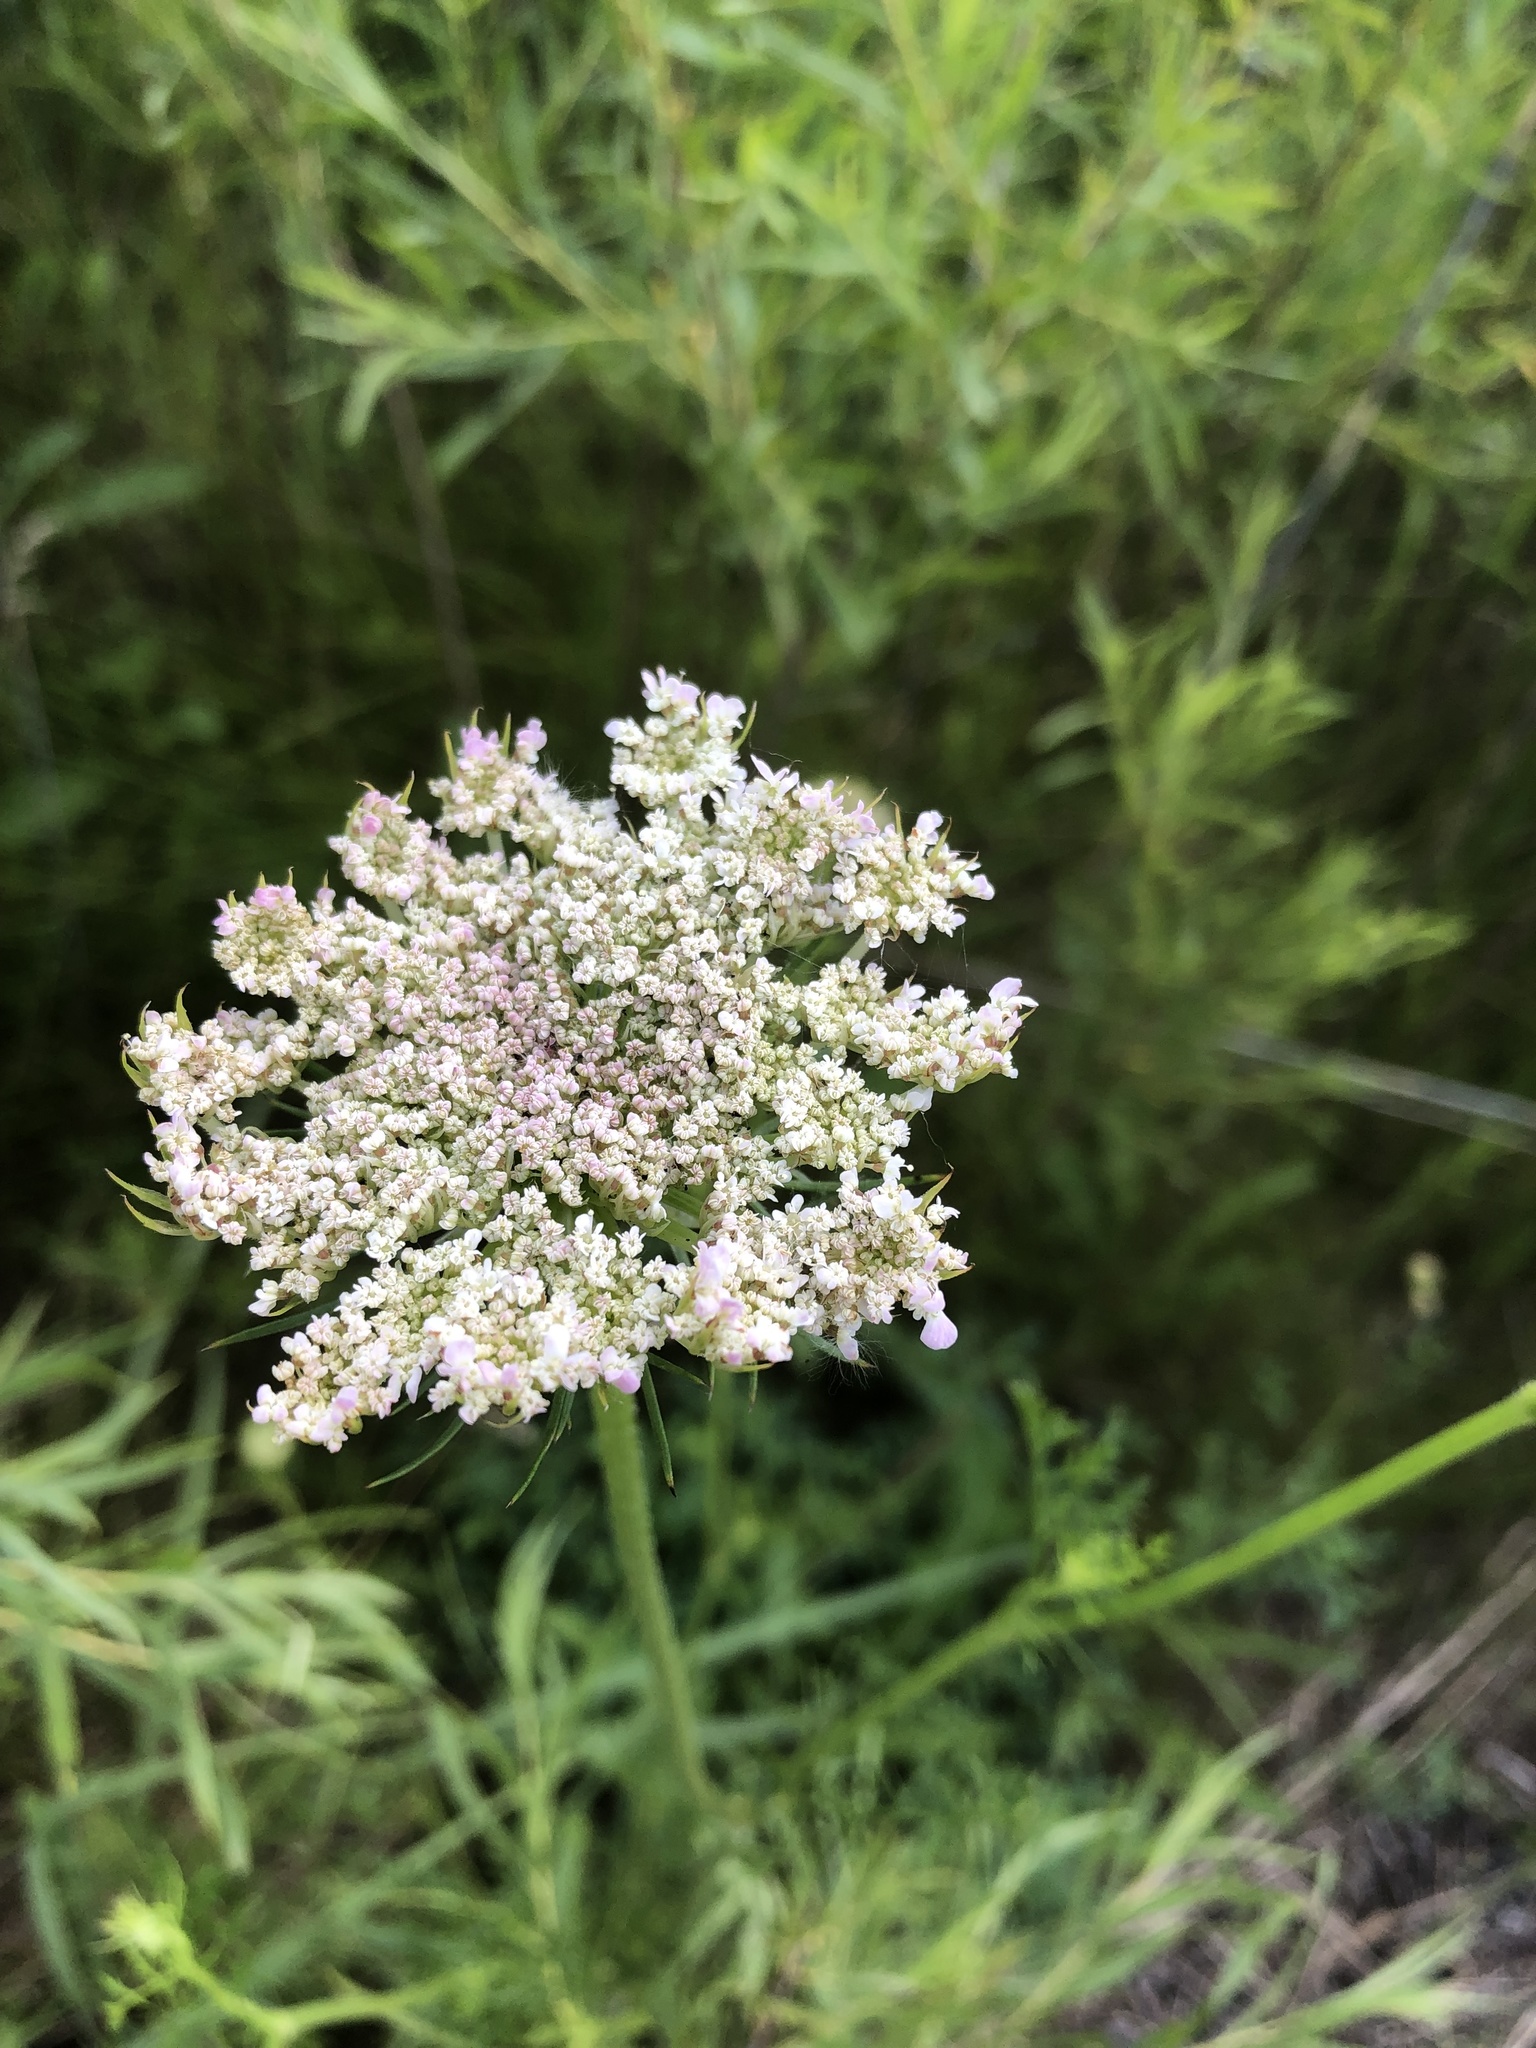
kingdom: Plantae
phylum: Tracheophyta
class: Magnoliopsida
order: Apiales
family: Apiaceae
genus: Daucus
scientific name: Daucus carota
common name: Wild carrot
